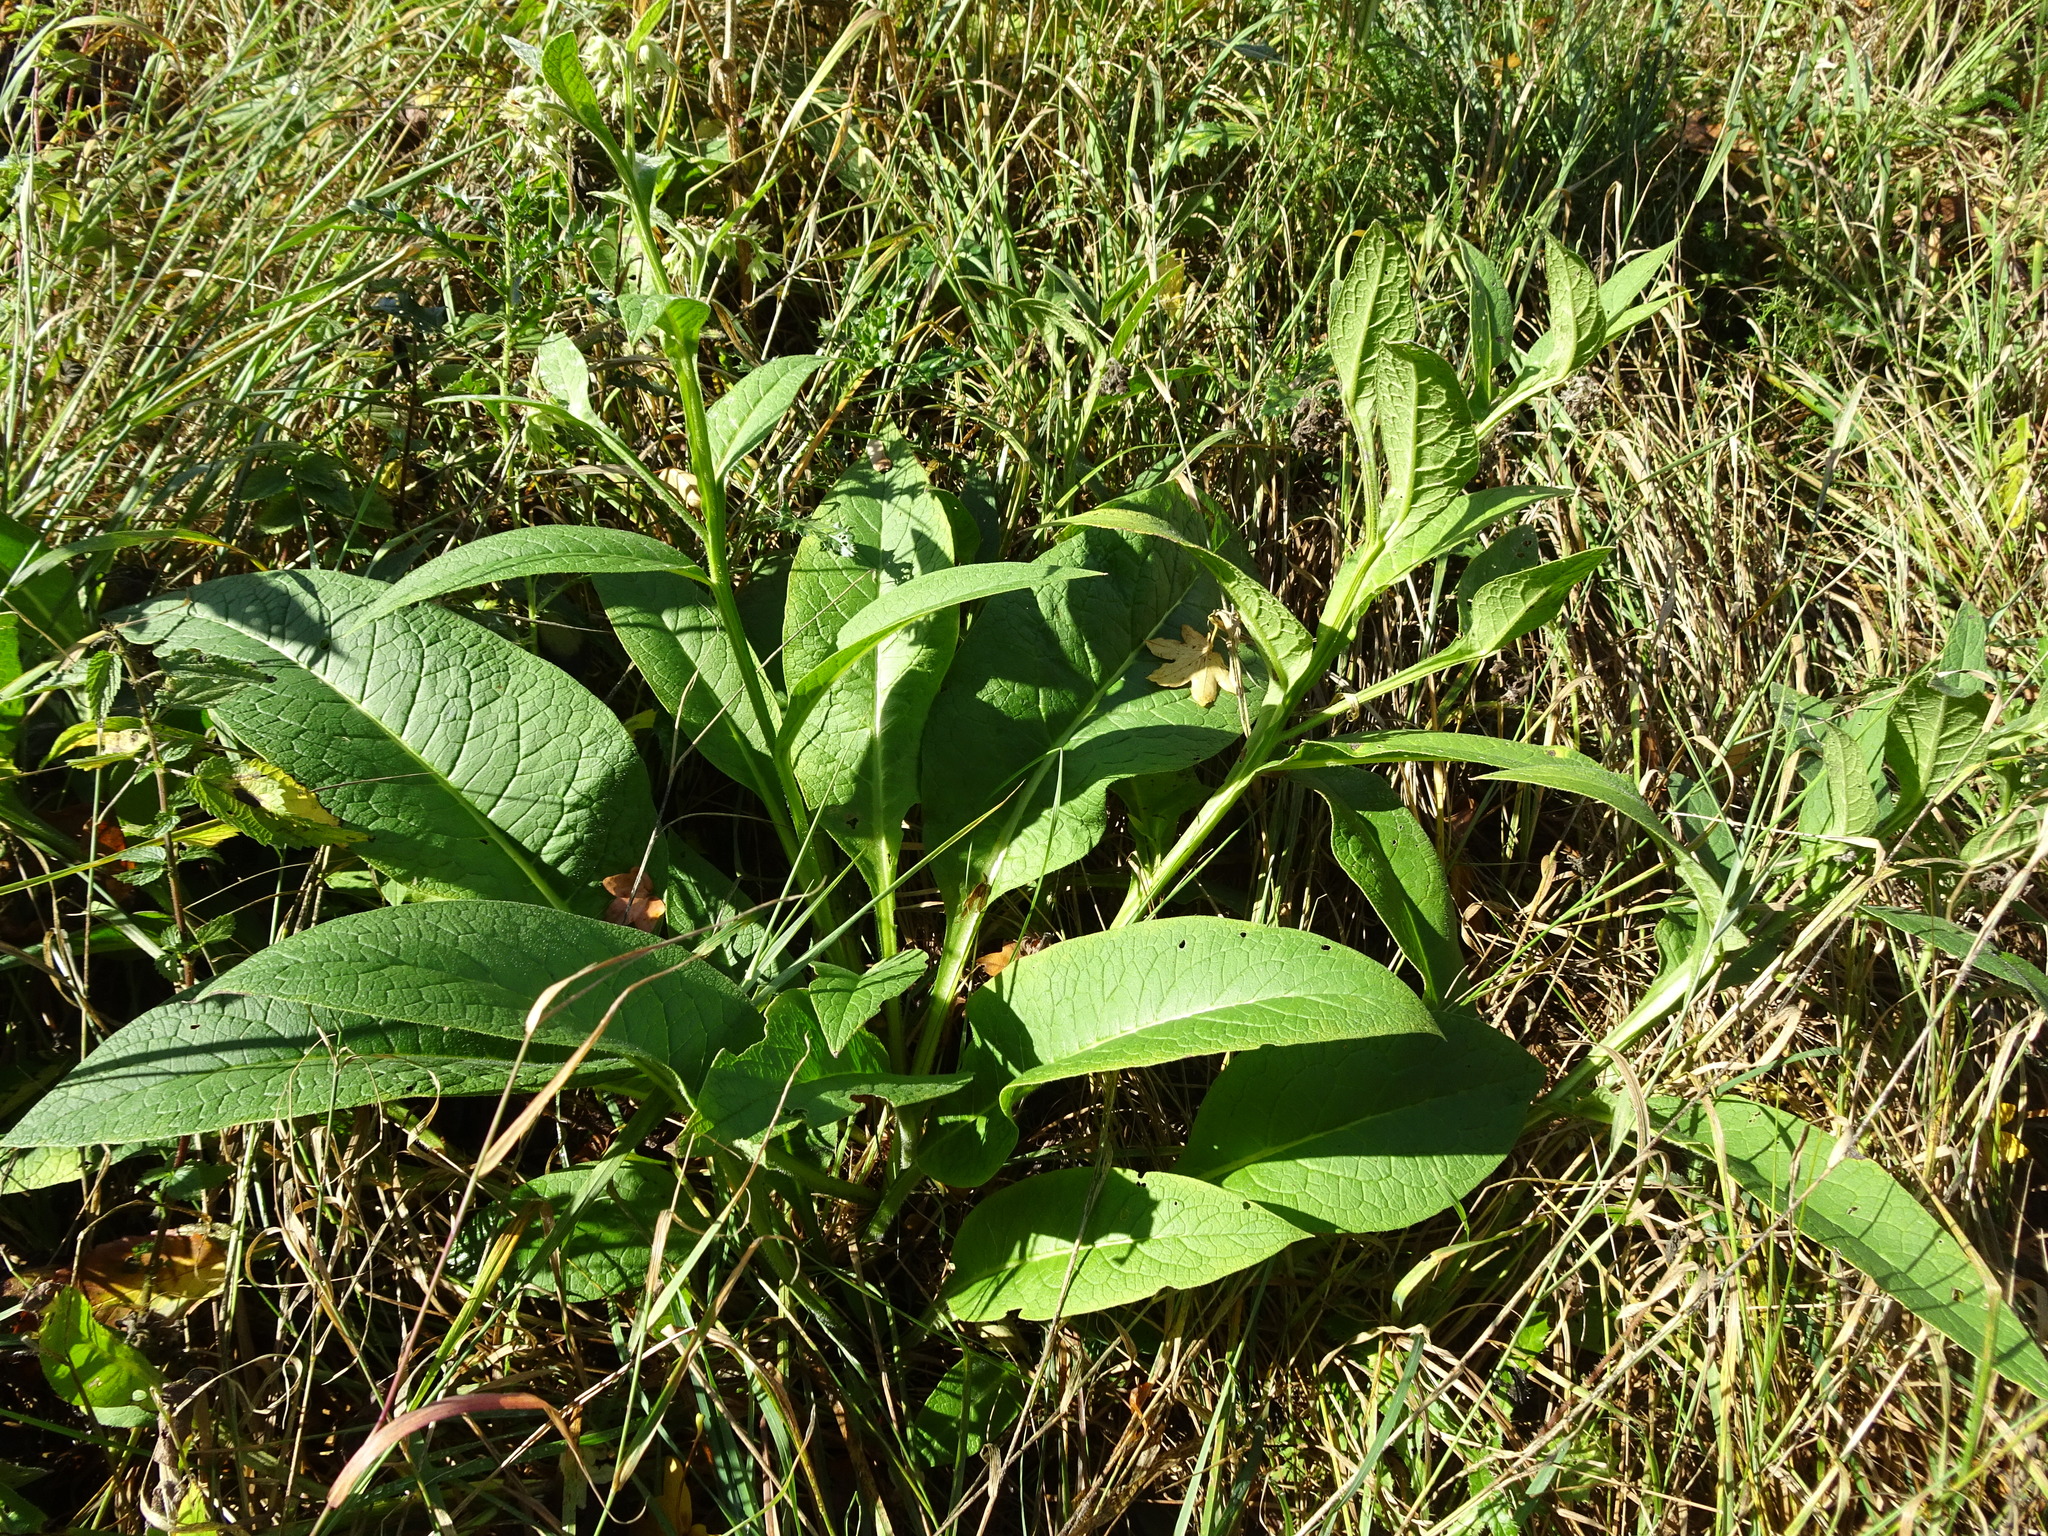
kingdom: Plantae
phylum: Tracheophyta
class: Magnoliopsida
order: Boraginales
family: Boraginaceae
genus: Symphytum
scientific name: Symphytum officinale
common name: Common comfrey
